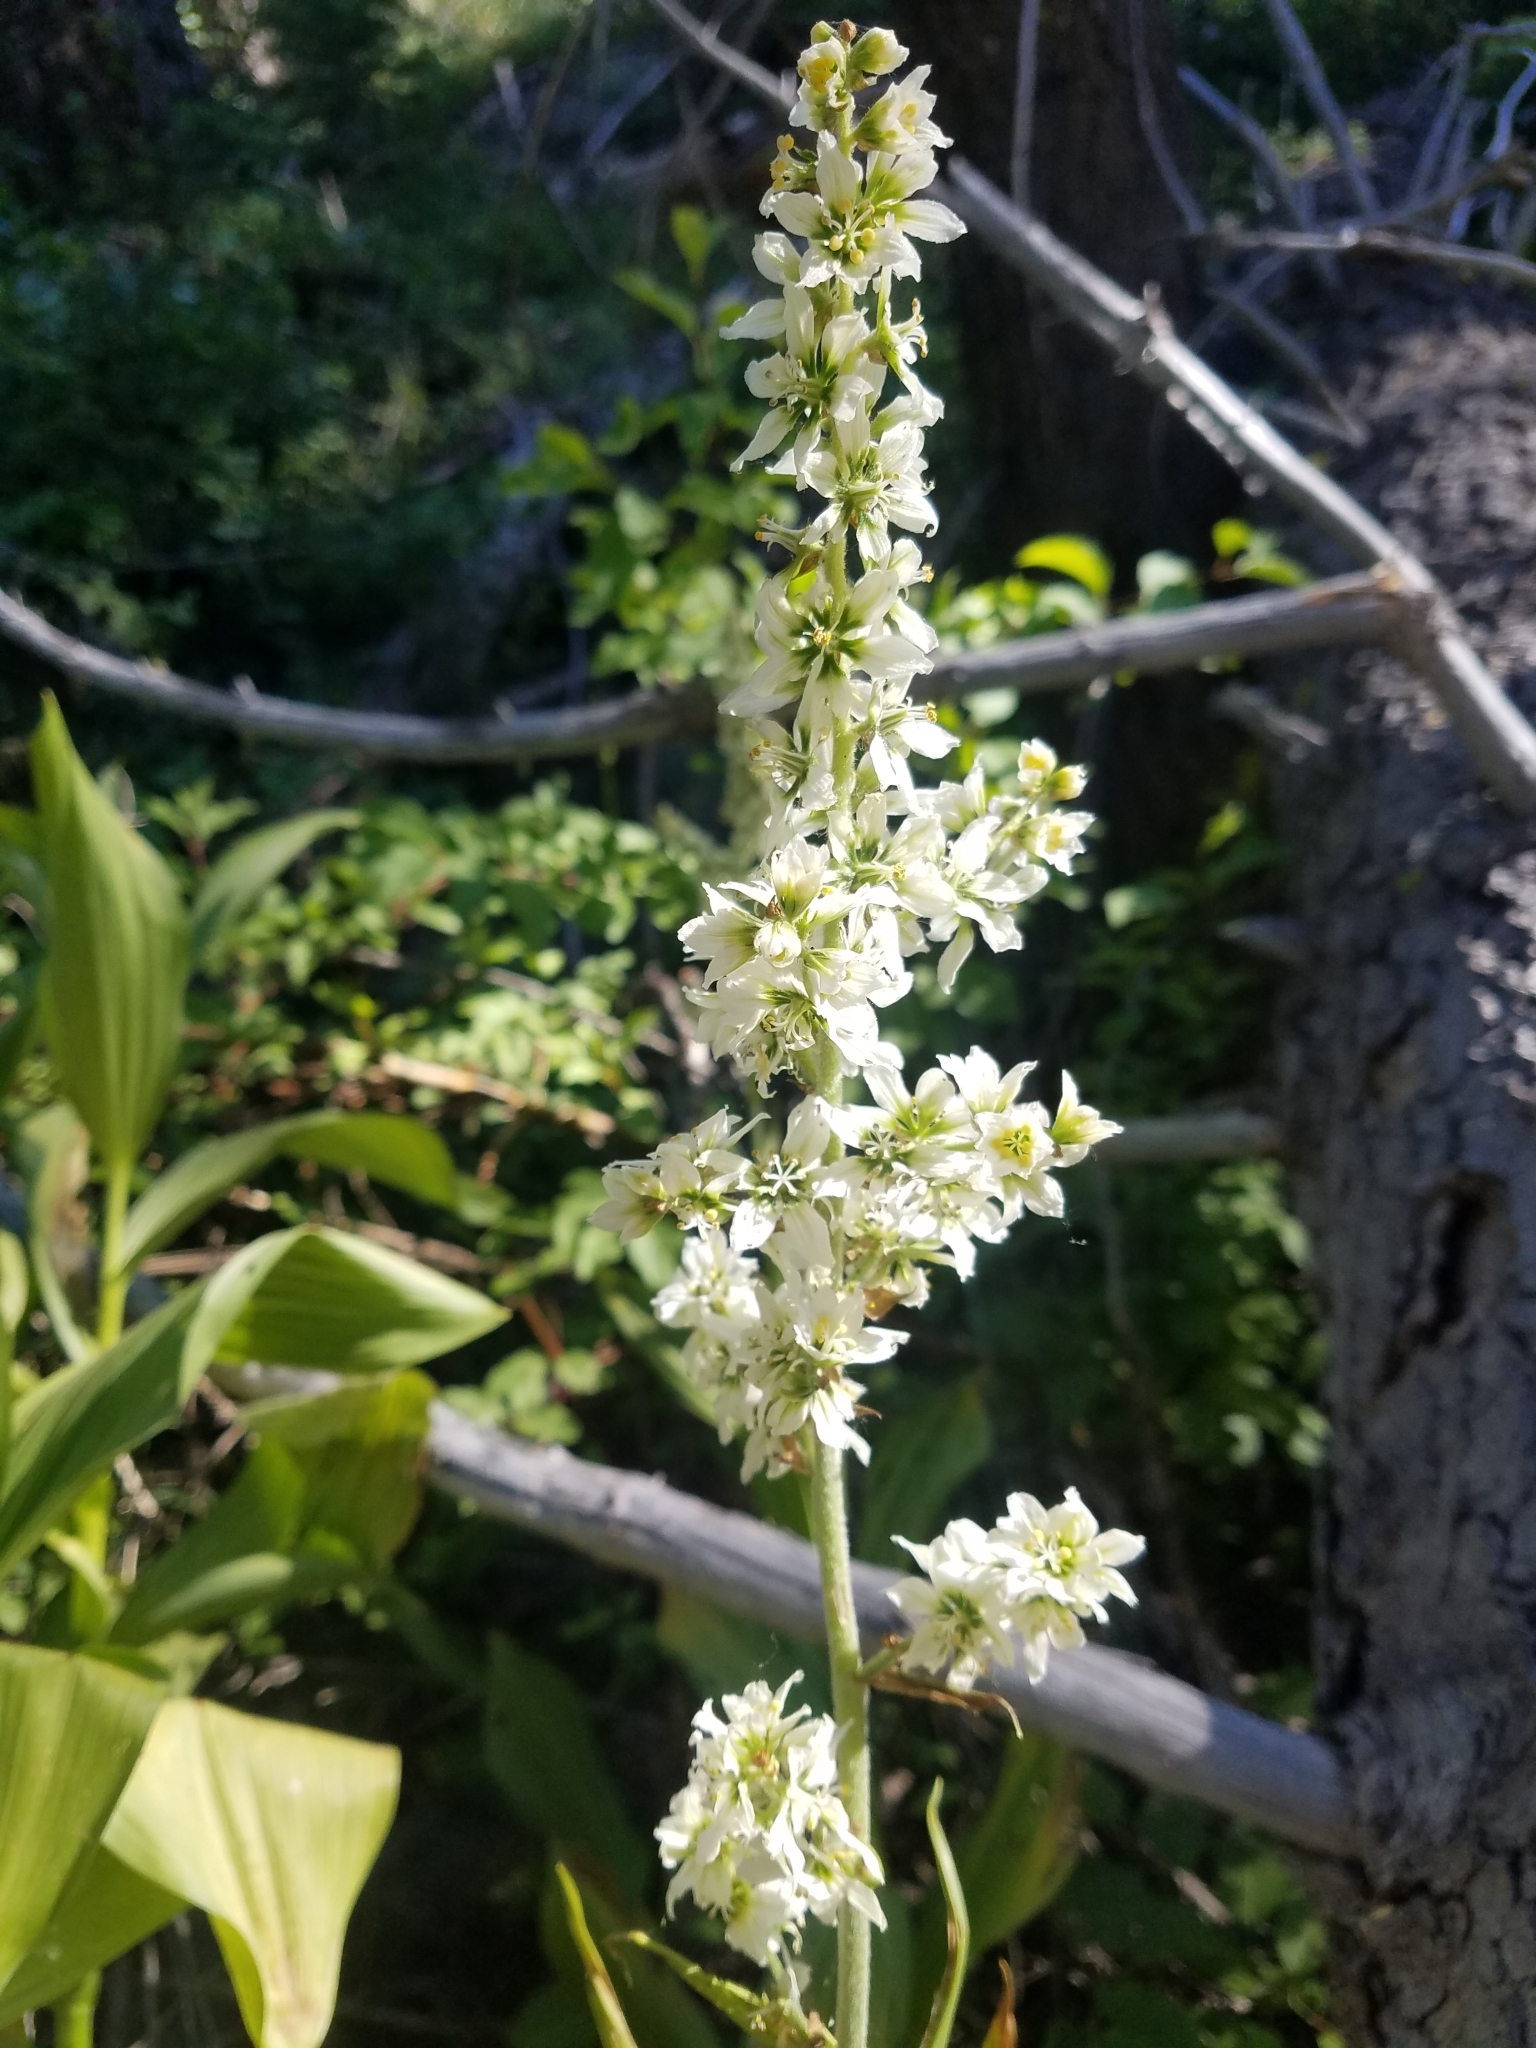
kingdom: Plantae
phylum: Tracheophyta
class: Liliopsida
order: Liliales
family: Melanthiaceae
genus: Veratrum
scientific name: Veratrum californicum
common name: California veratrum
